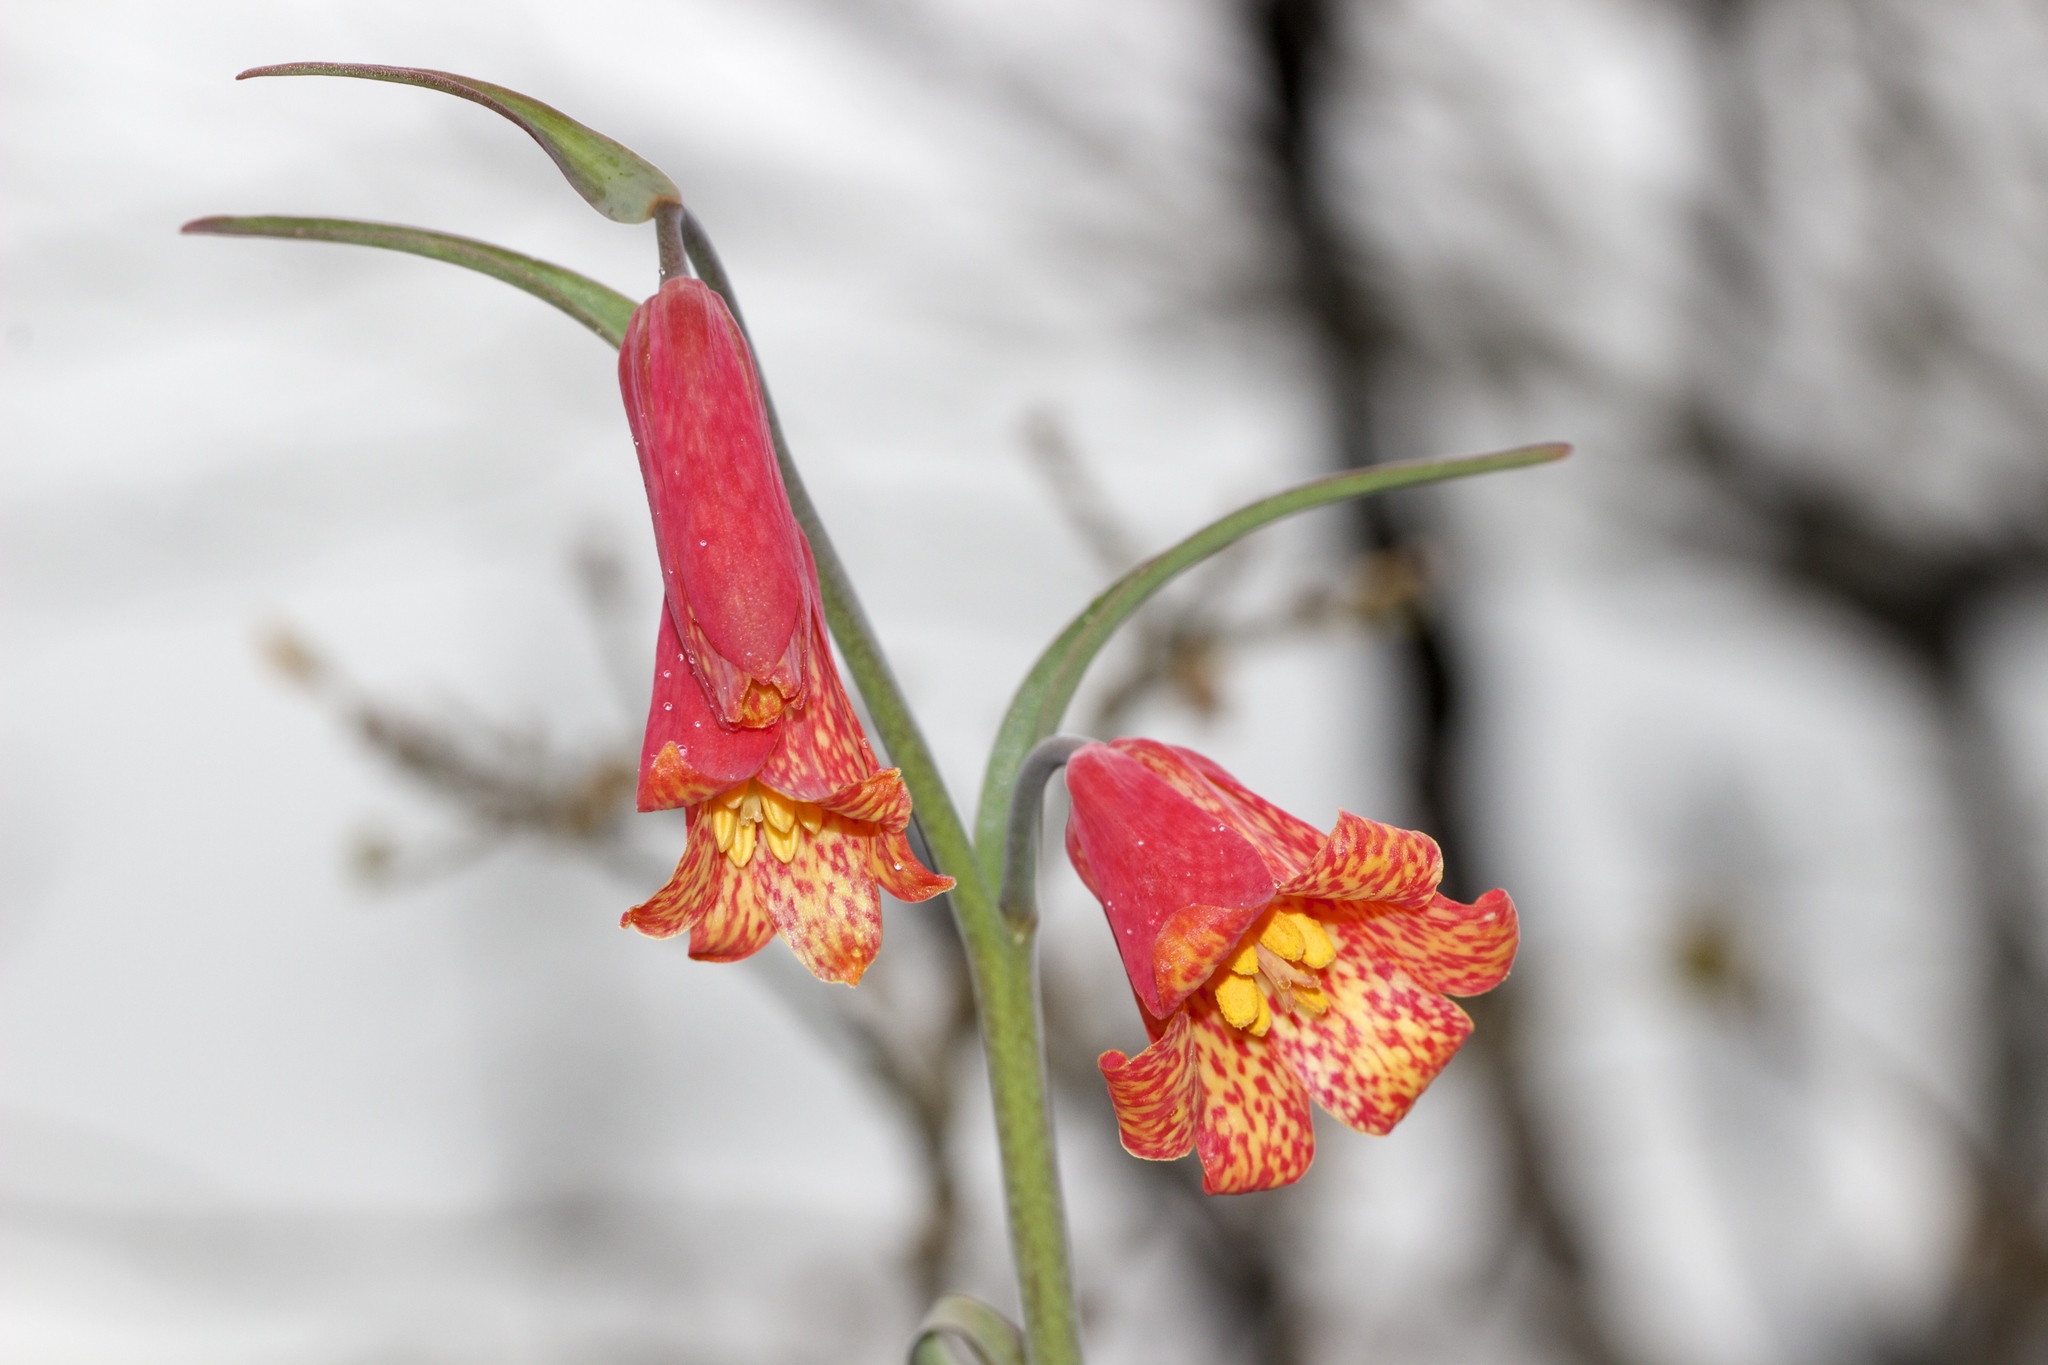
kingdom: Plantae
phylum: Tracheophyta
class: Liliopsida
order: Liliales
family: Liliaceae
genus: Fritillaria
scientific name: Fritillaria recurva
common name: Scarlet fritillary
